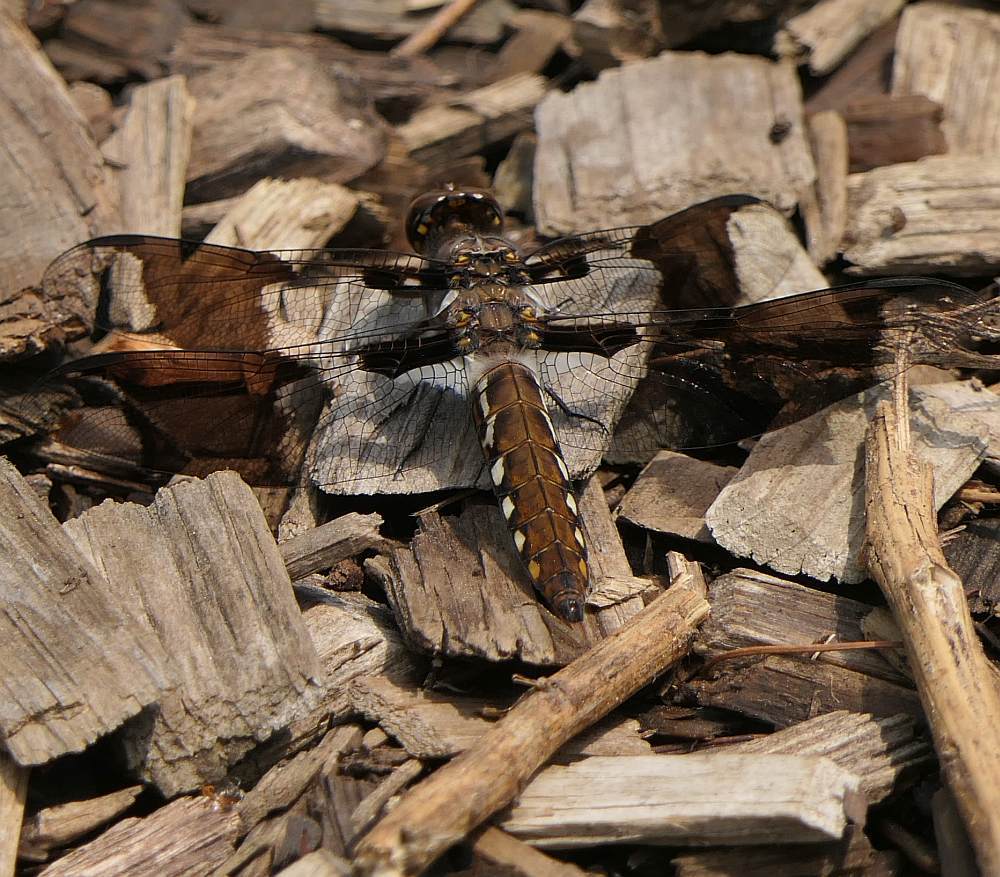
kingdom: Animalia
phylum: Arthropoda
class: Insecta
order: Odonata
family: Libellulidae
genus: Plathemis
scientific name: Plathemis lydia
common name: Common whitetail
